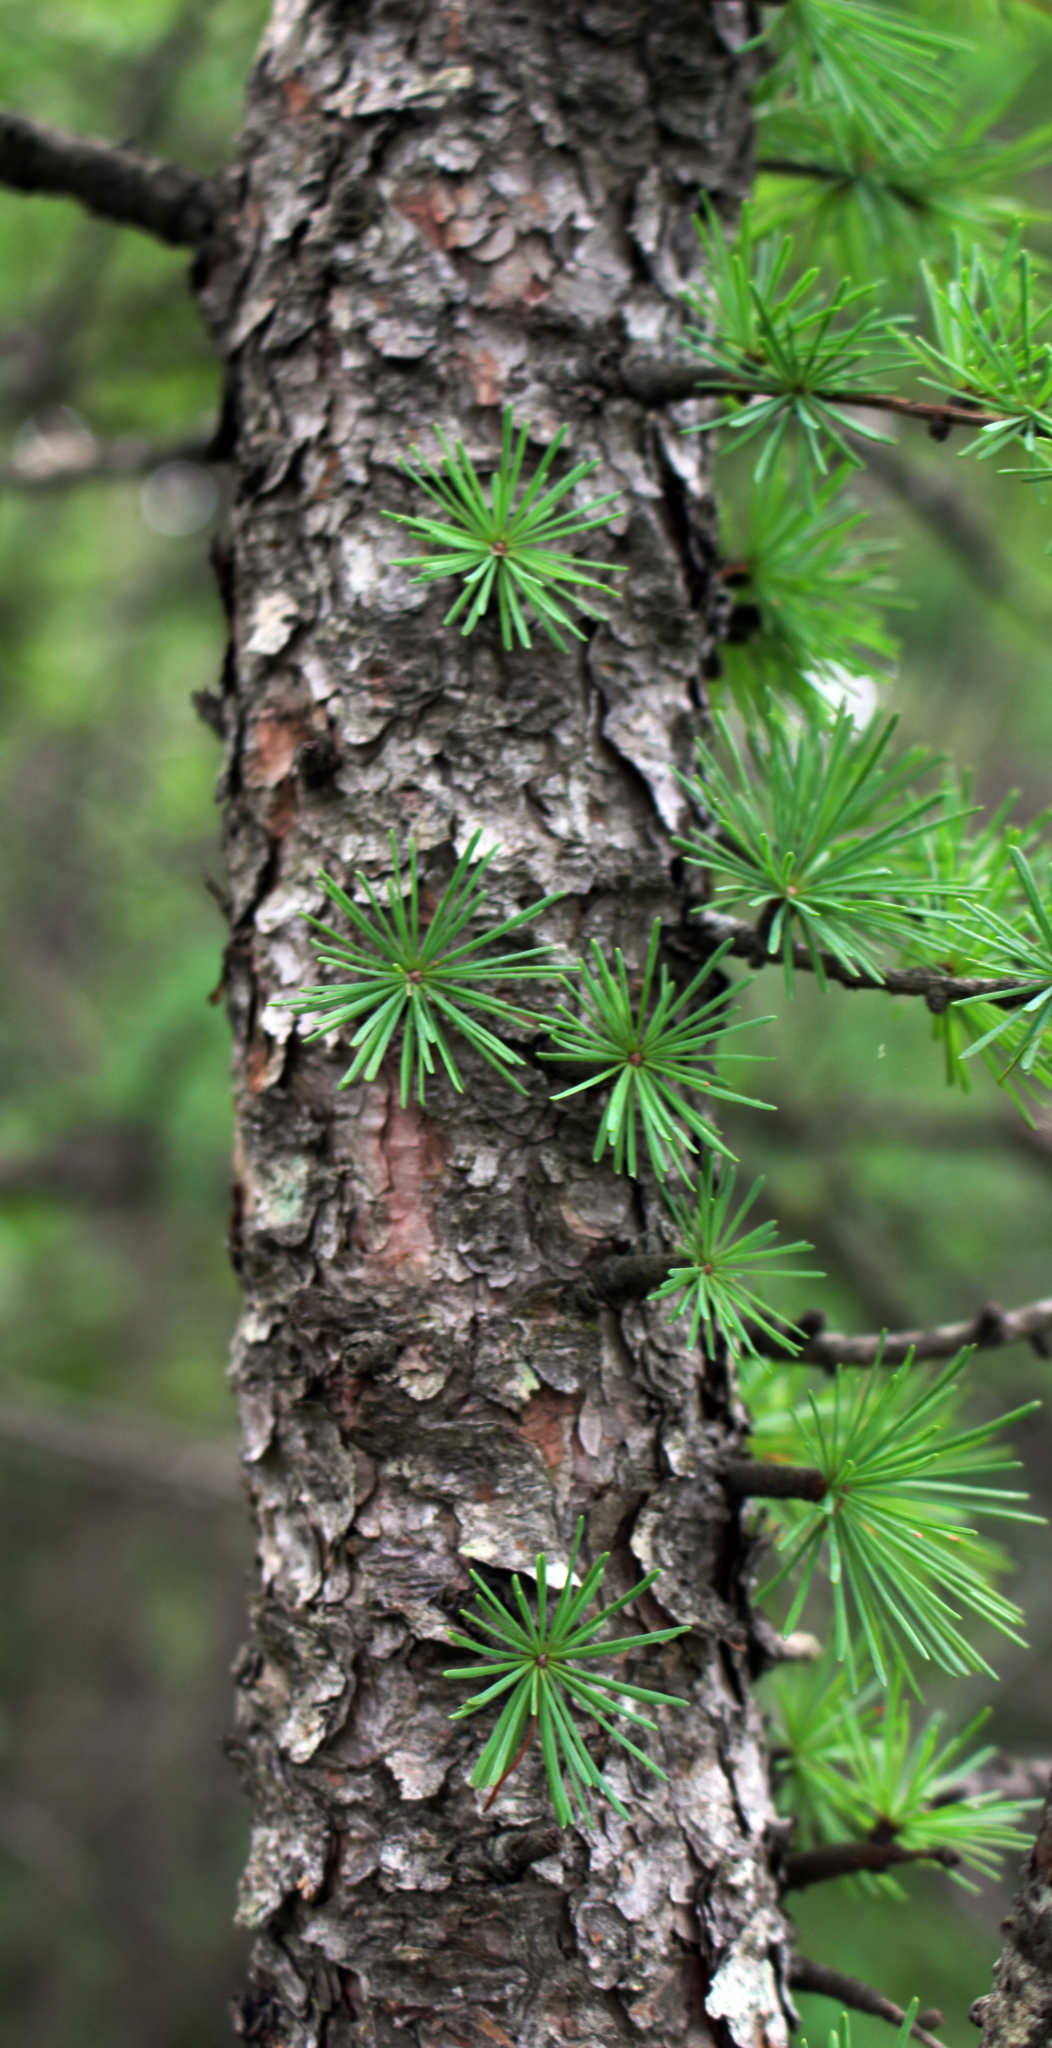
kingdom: Plantae
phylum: Tracheophyta
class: Pinopsida
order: Pinales
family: Pinaceae
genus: Larix
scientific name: Larix laricina
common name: American larch
